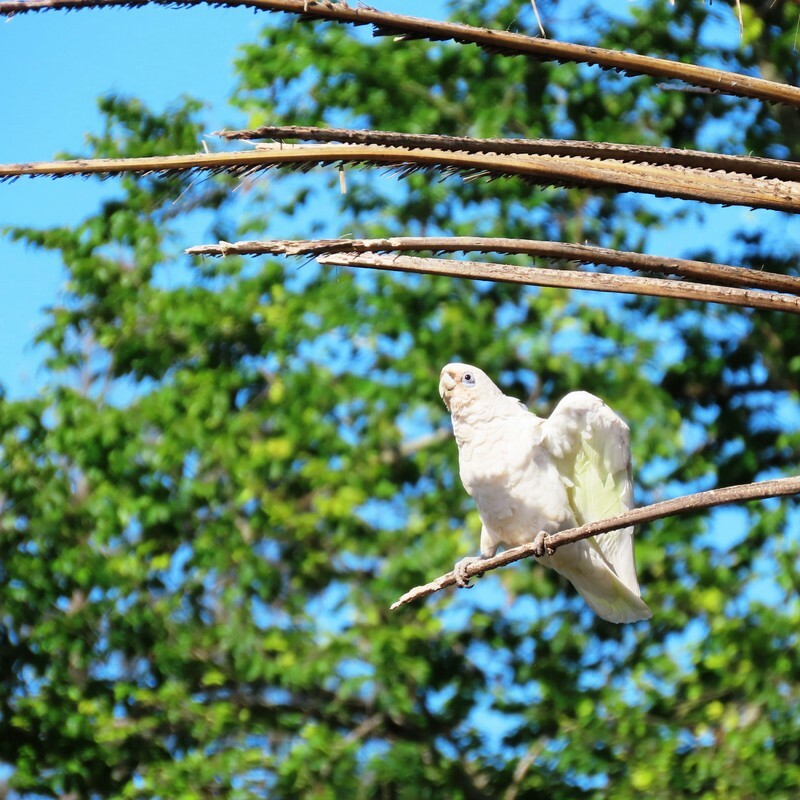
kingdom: Animalia
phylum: Chordata
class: Aves
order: Psittaciformes
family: Psittacidae
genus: Cacatua
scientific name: Cacatua sanguinea
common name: Little corella
